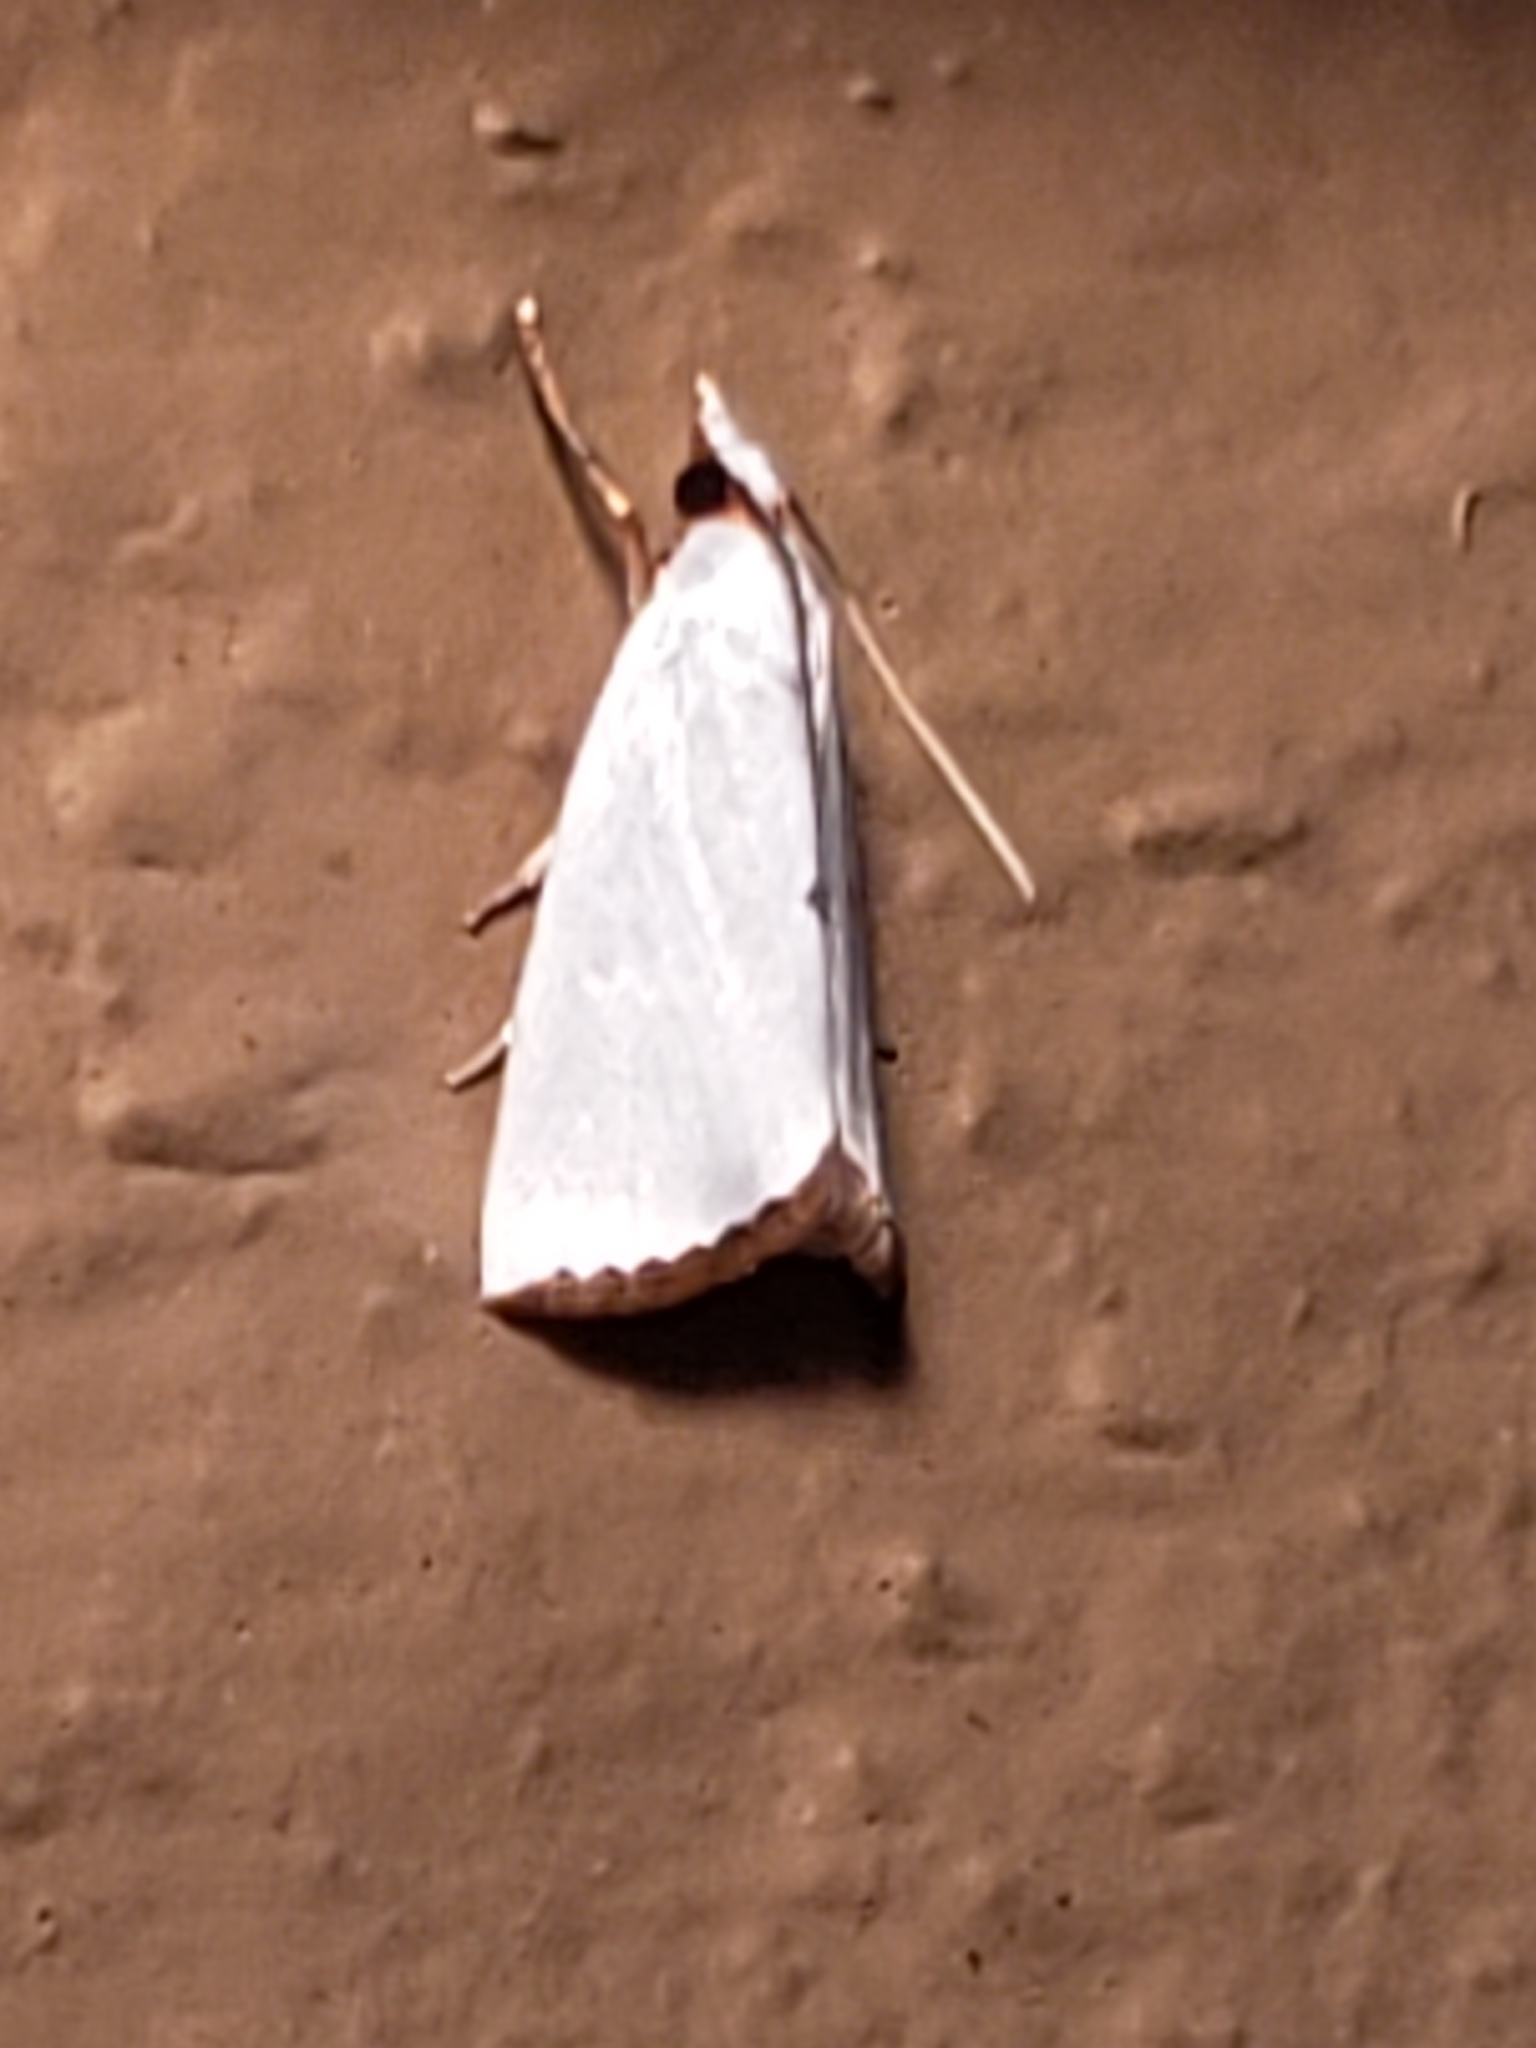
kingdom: Animalia
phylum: Arthropoda
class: Insecta
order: Lepidoptera
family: Crambidae
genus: Argyria
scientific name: Argyria nivalis
